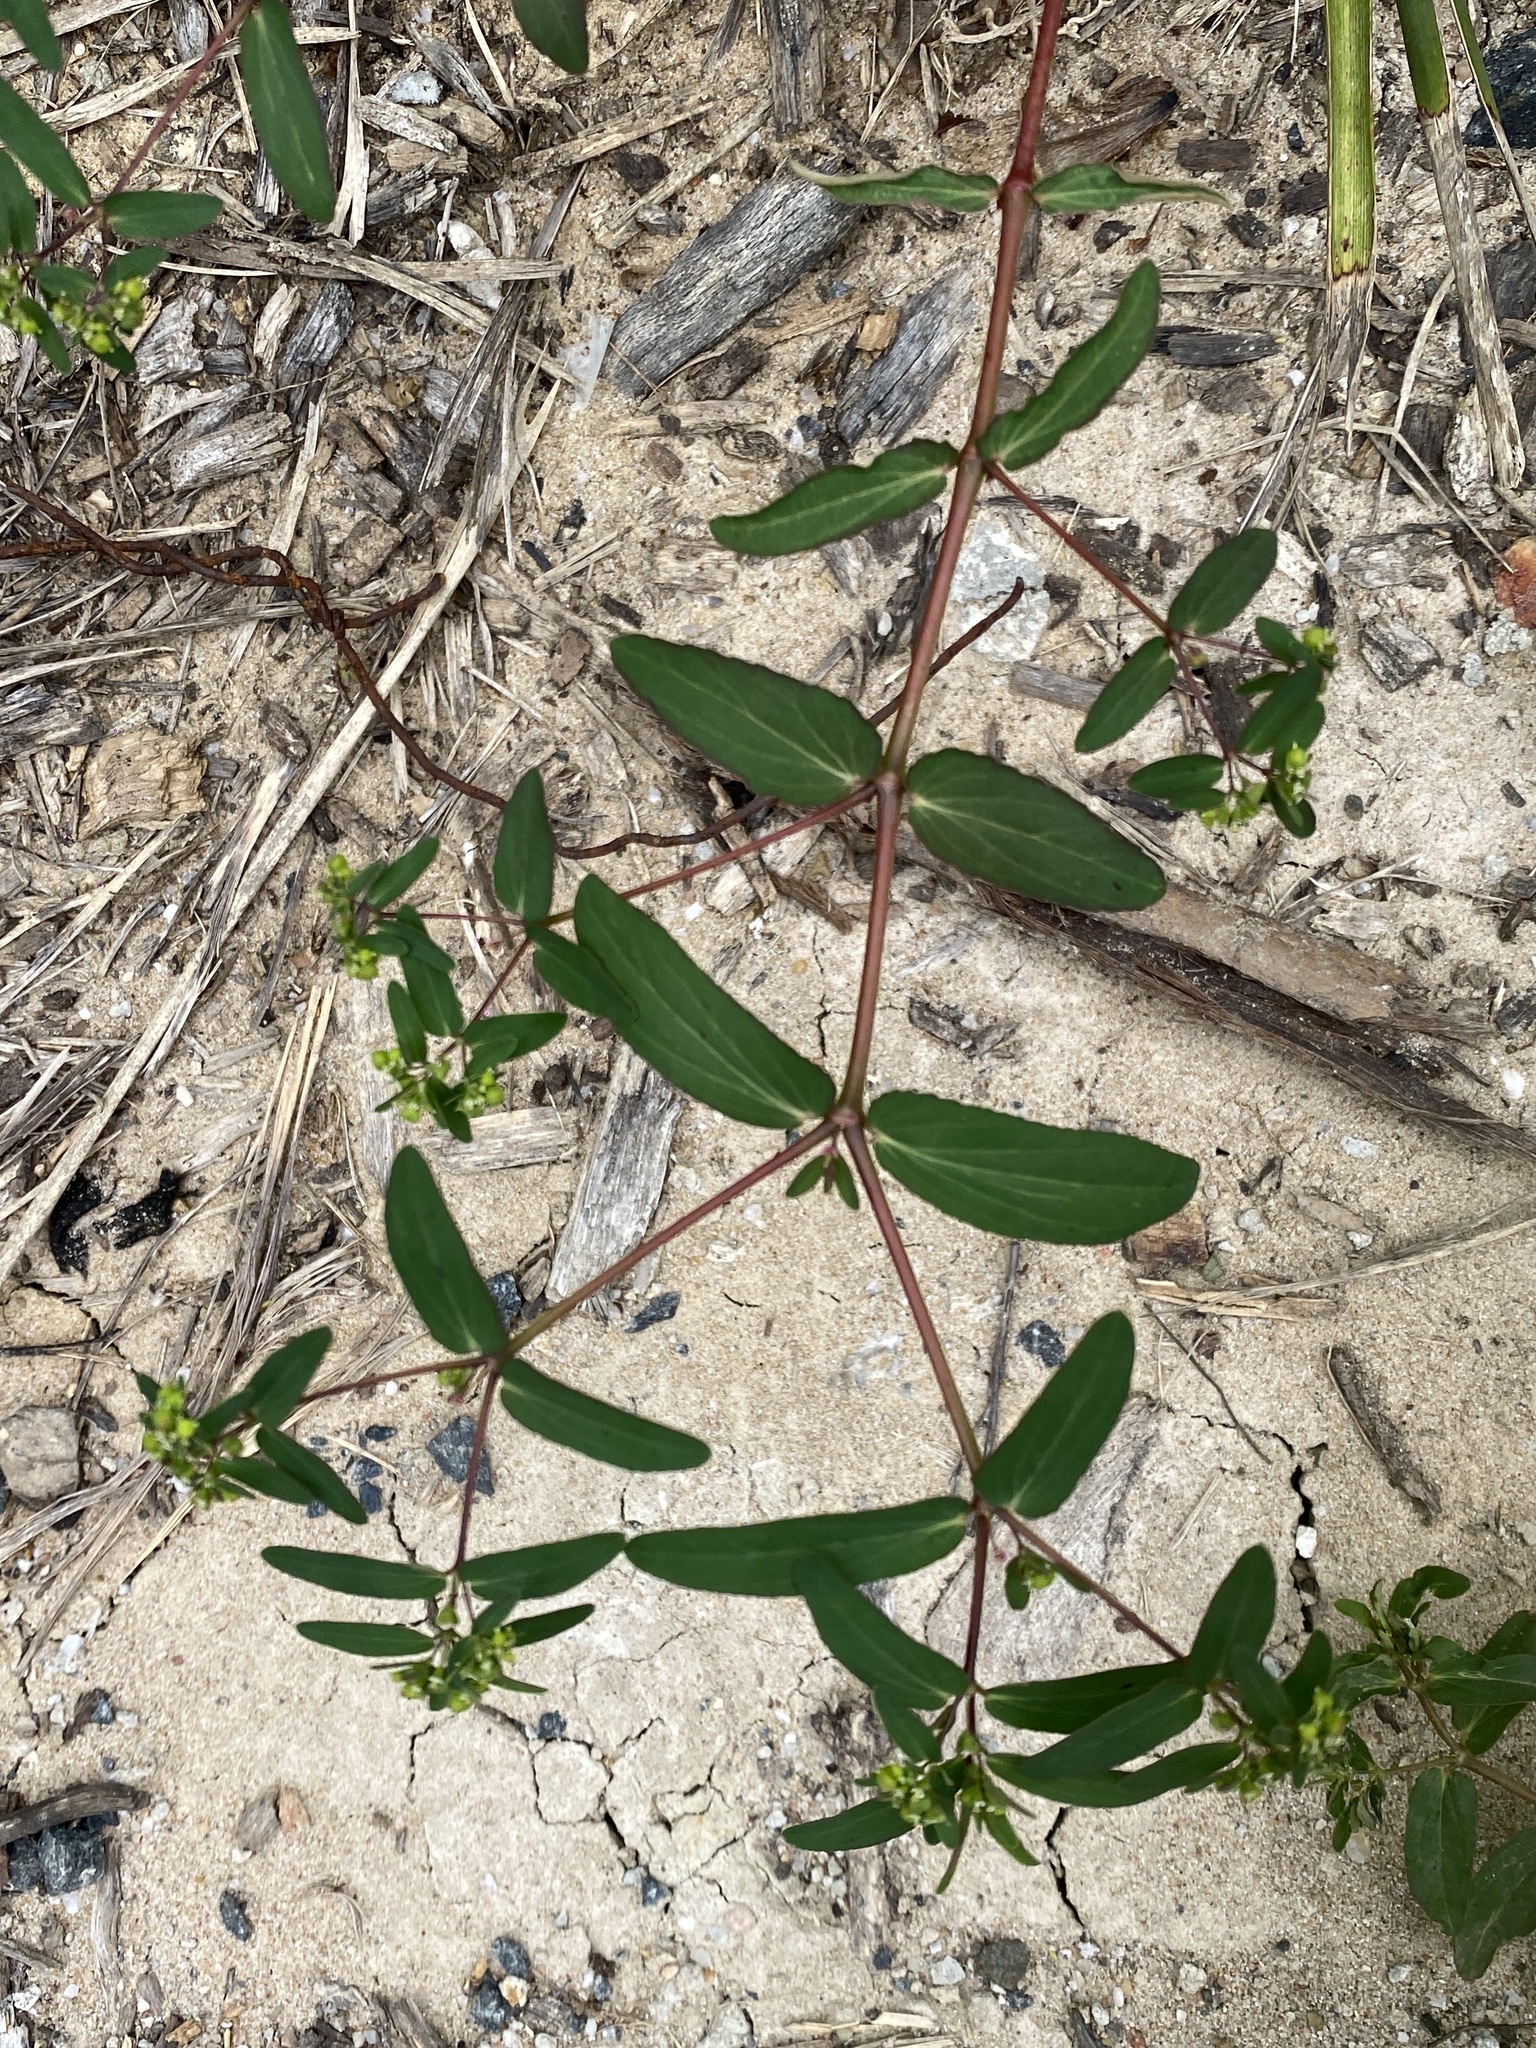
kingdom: Plantae
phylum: Tracheophyta
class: Magnoliopsida
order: Malpighiales
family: Euphorbiaceae
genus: Euphorbia
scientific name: Euphorbia hyssopifolia
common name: Hyssopleaf sandmat
